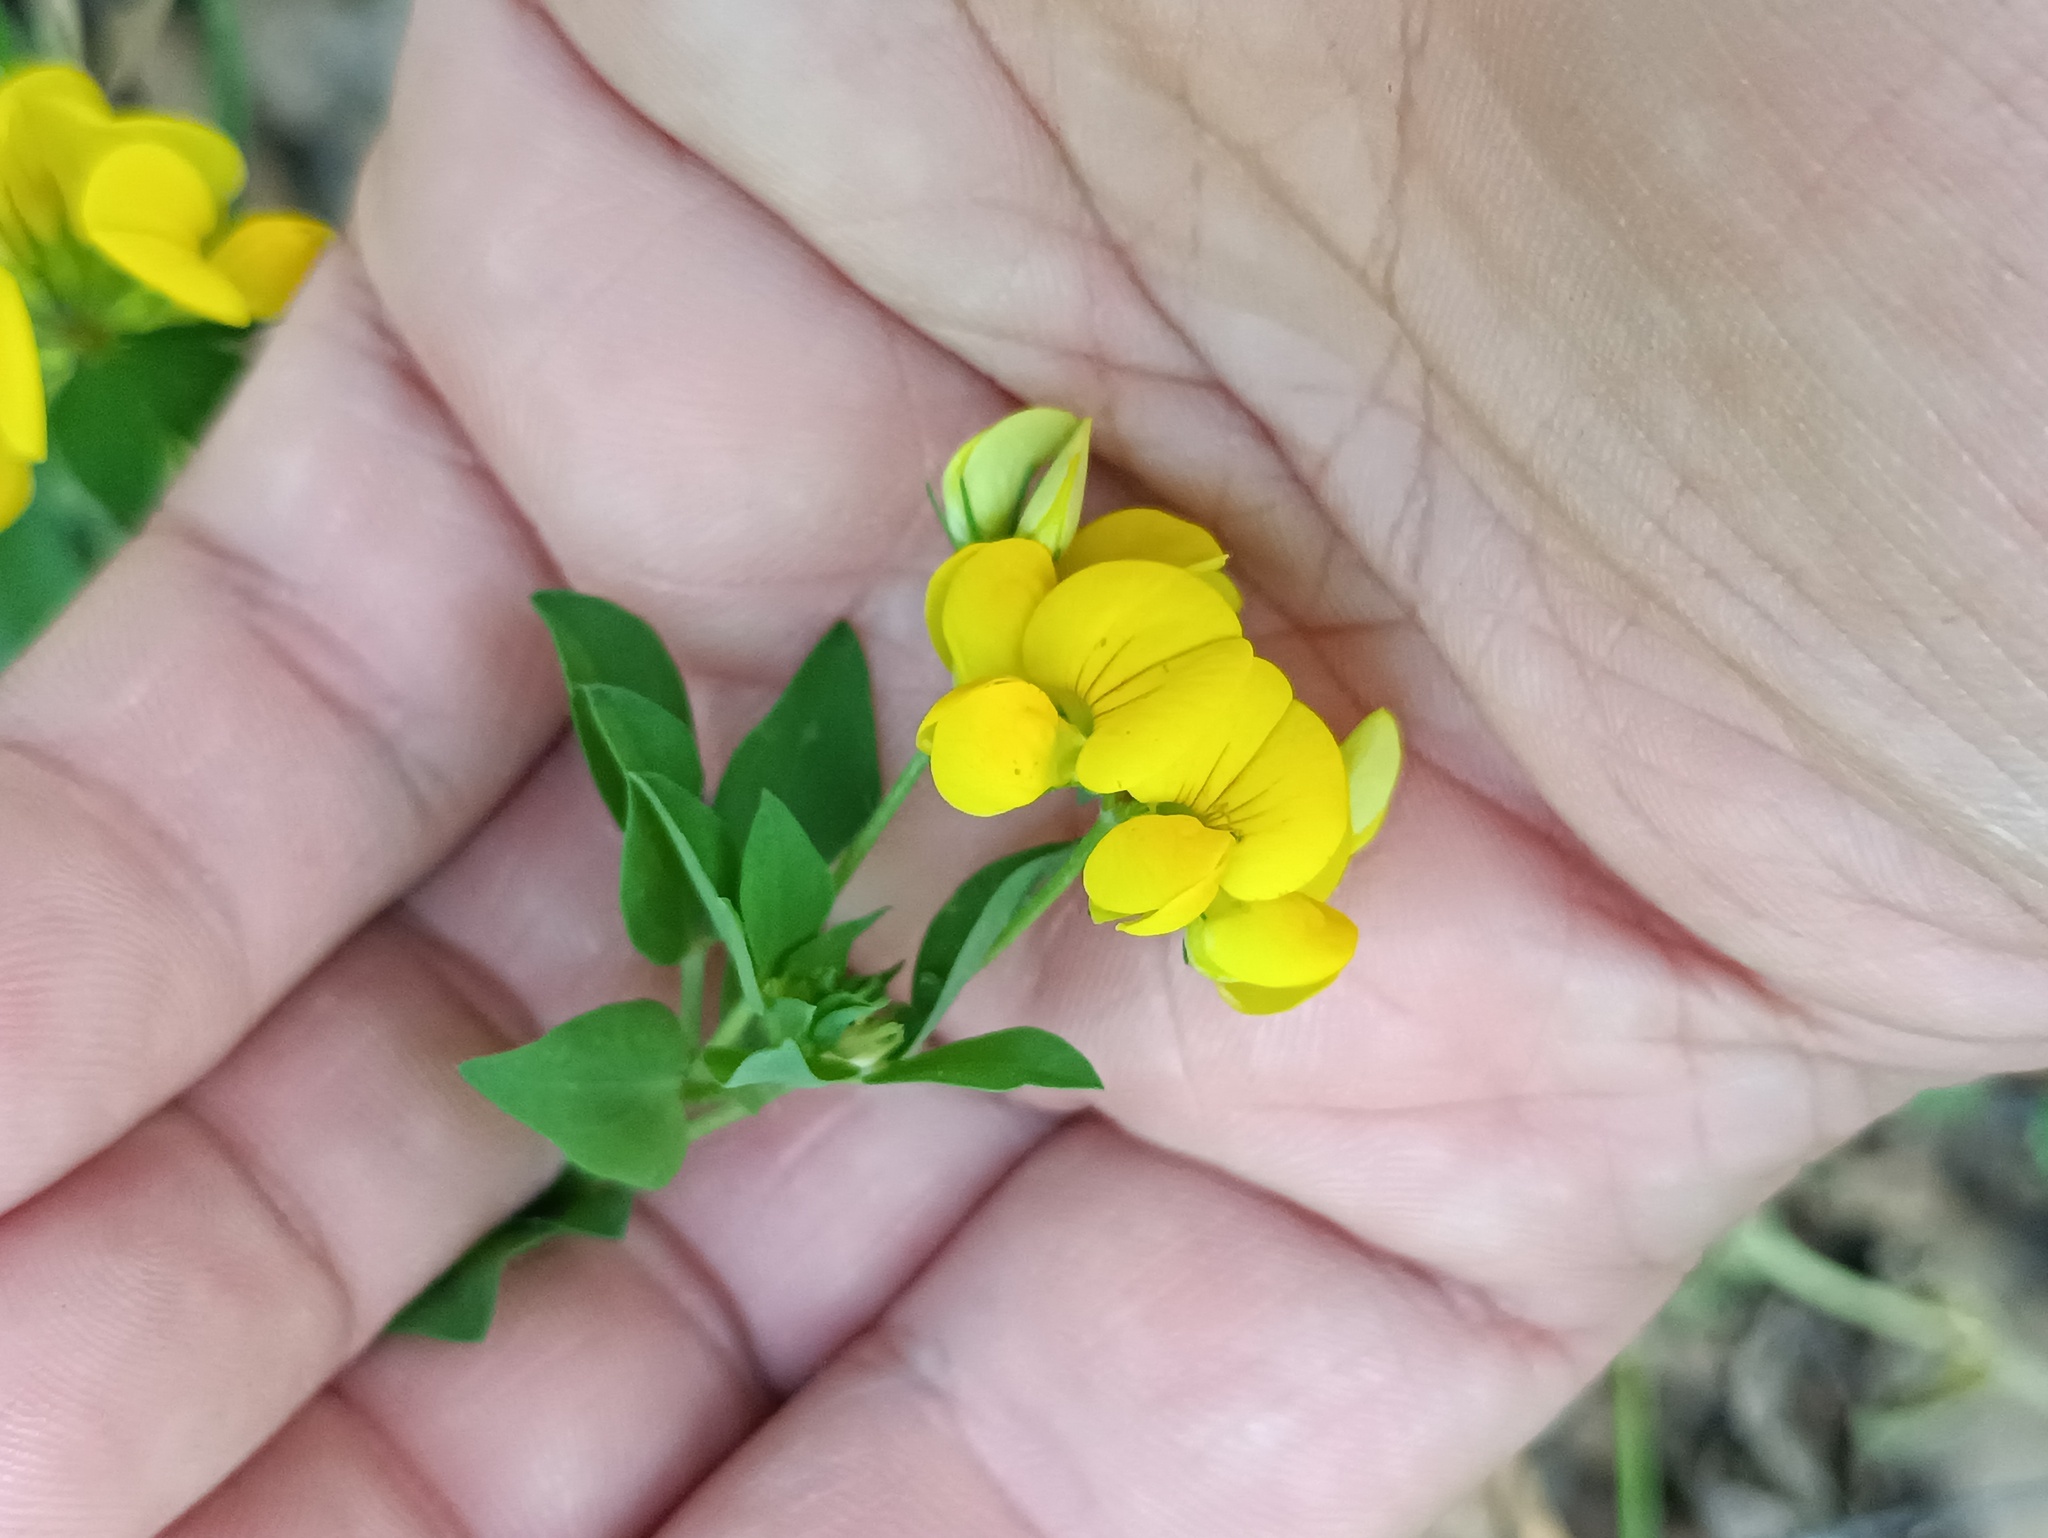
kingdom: Plantae
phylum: Tracheophyta
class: Magnoliopsida
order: Fabales
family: Fabaceae
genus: Lotus
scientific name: Lotus corniculatus
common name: Common bird's-foot-trefoil
